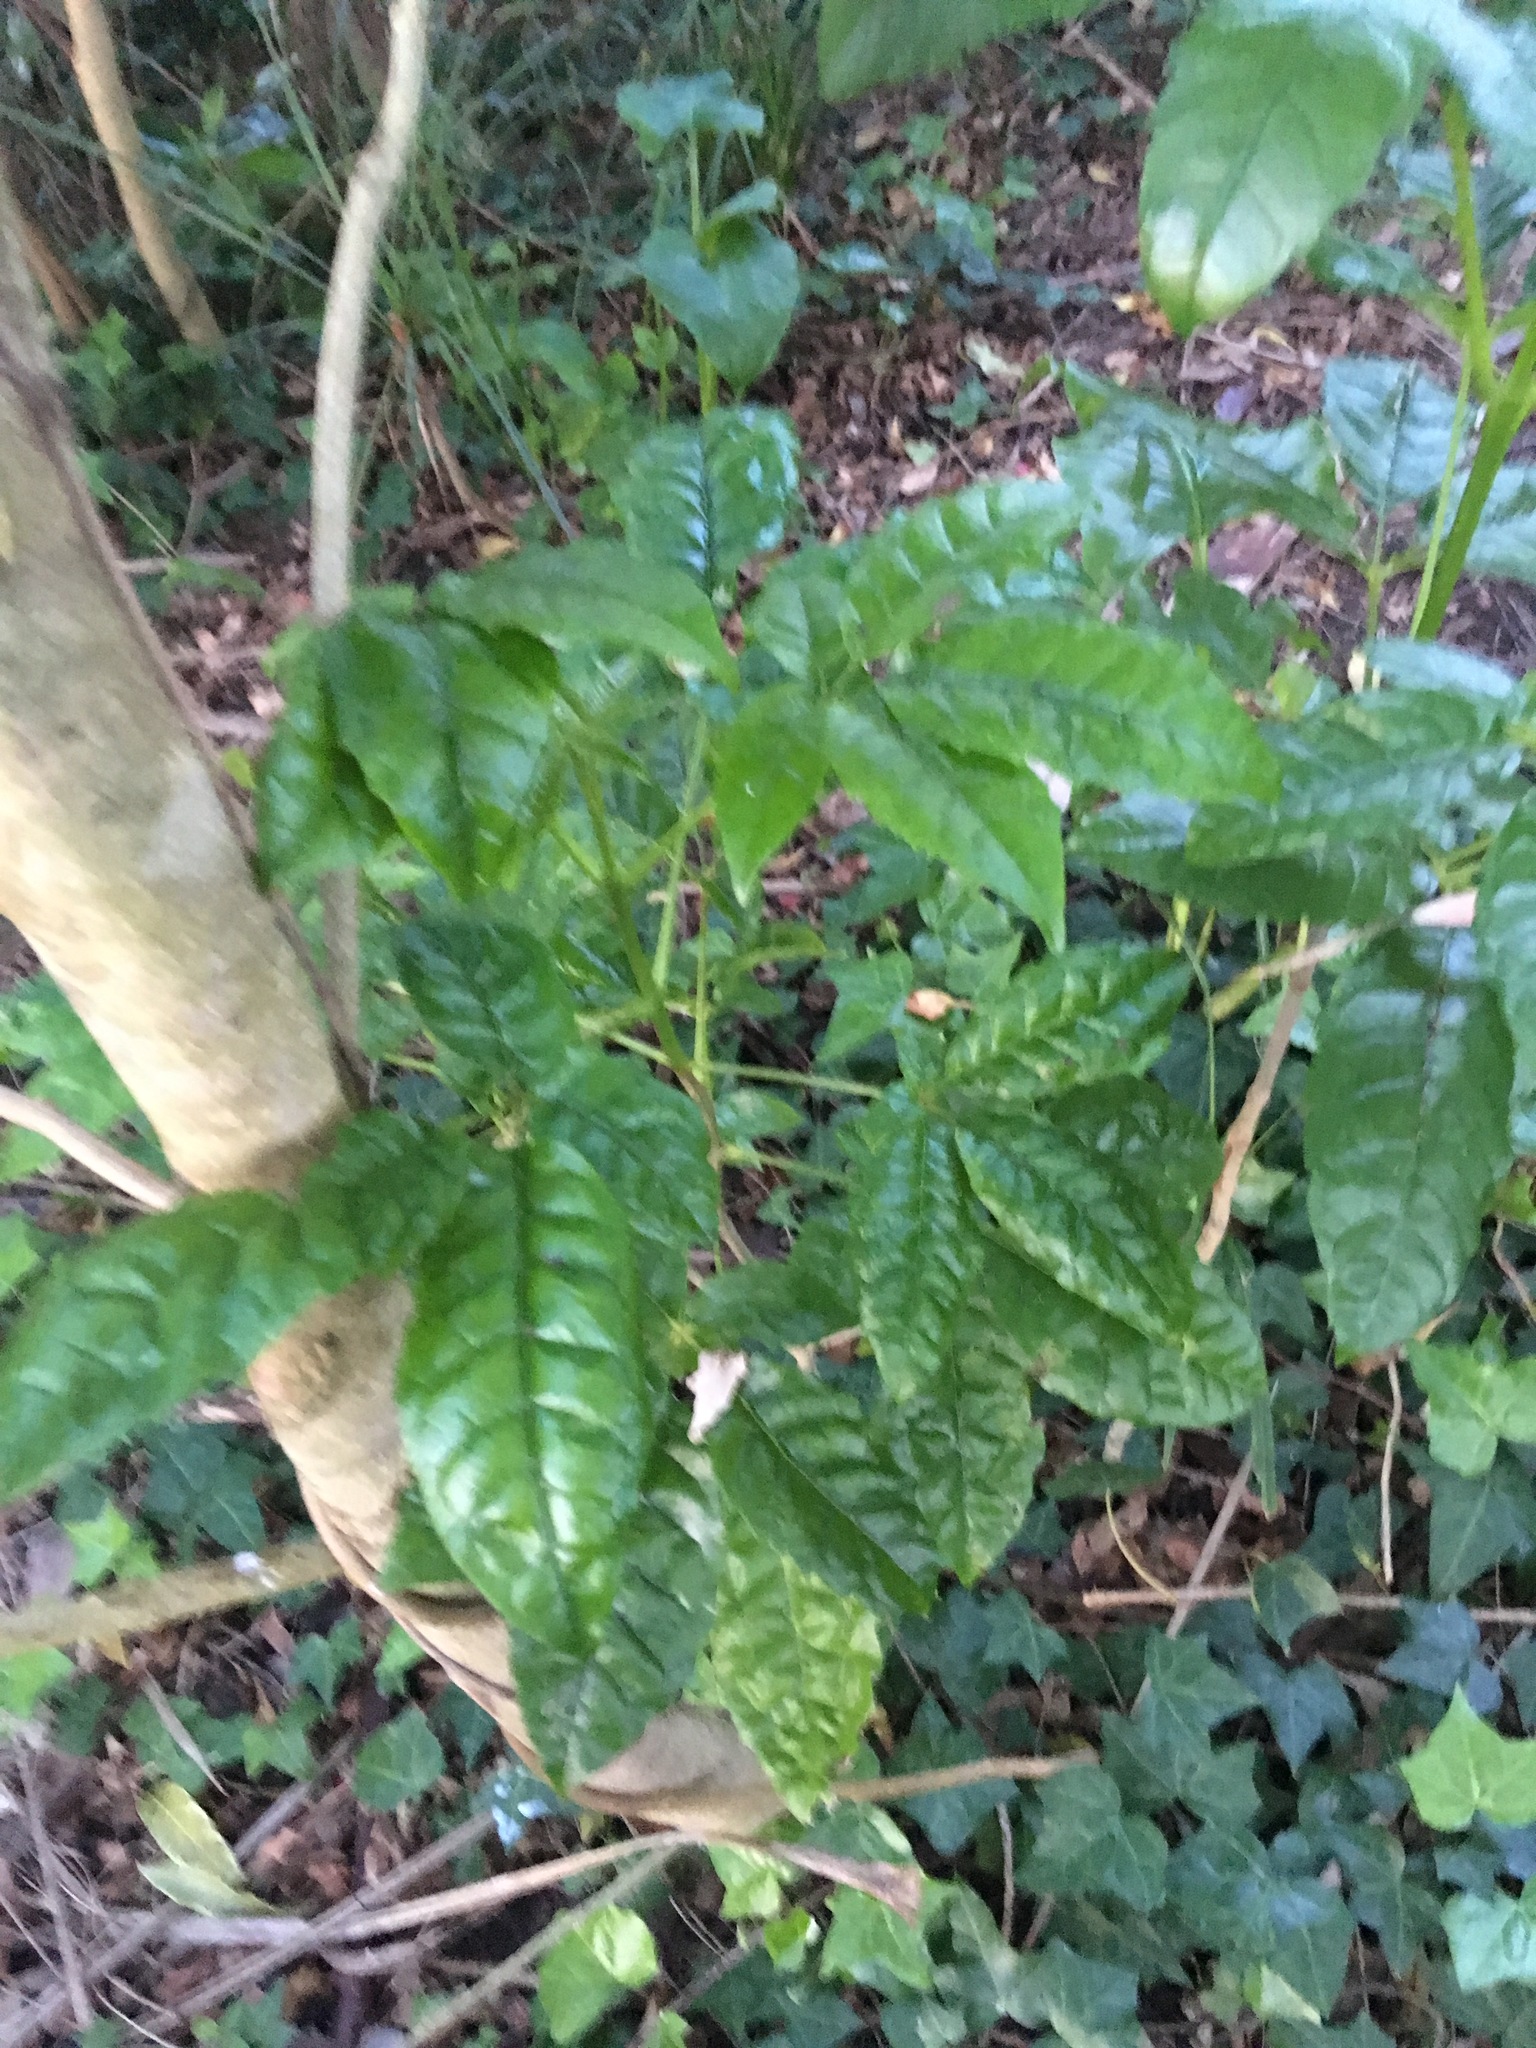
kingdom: Plantae
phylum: Tracheophyta
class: Magnoliopsida
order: Lamiales
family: Lamiaceae
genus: Vitex
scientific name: Vitex lucens
